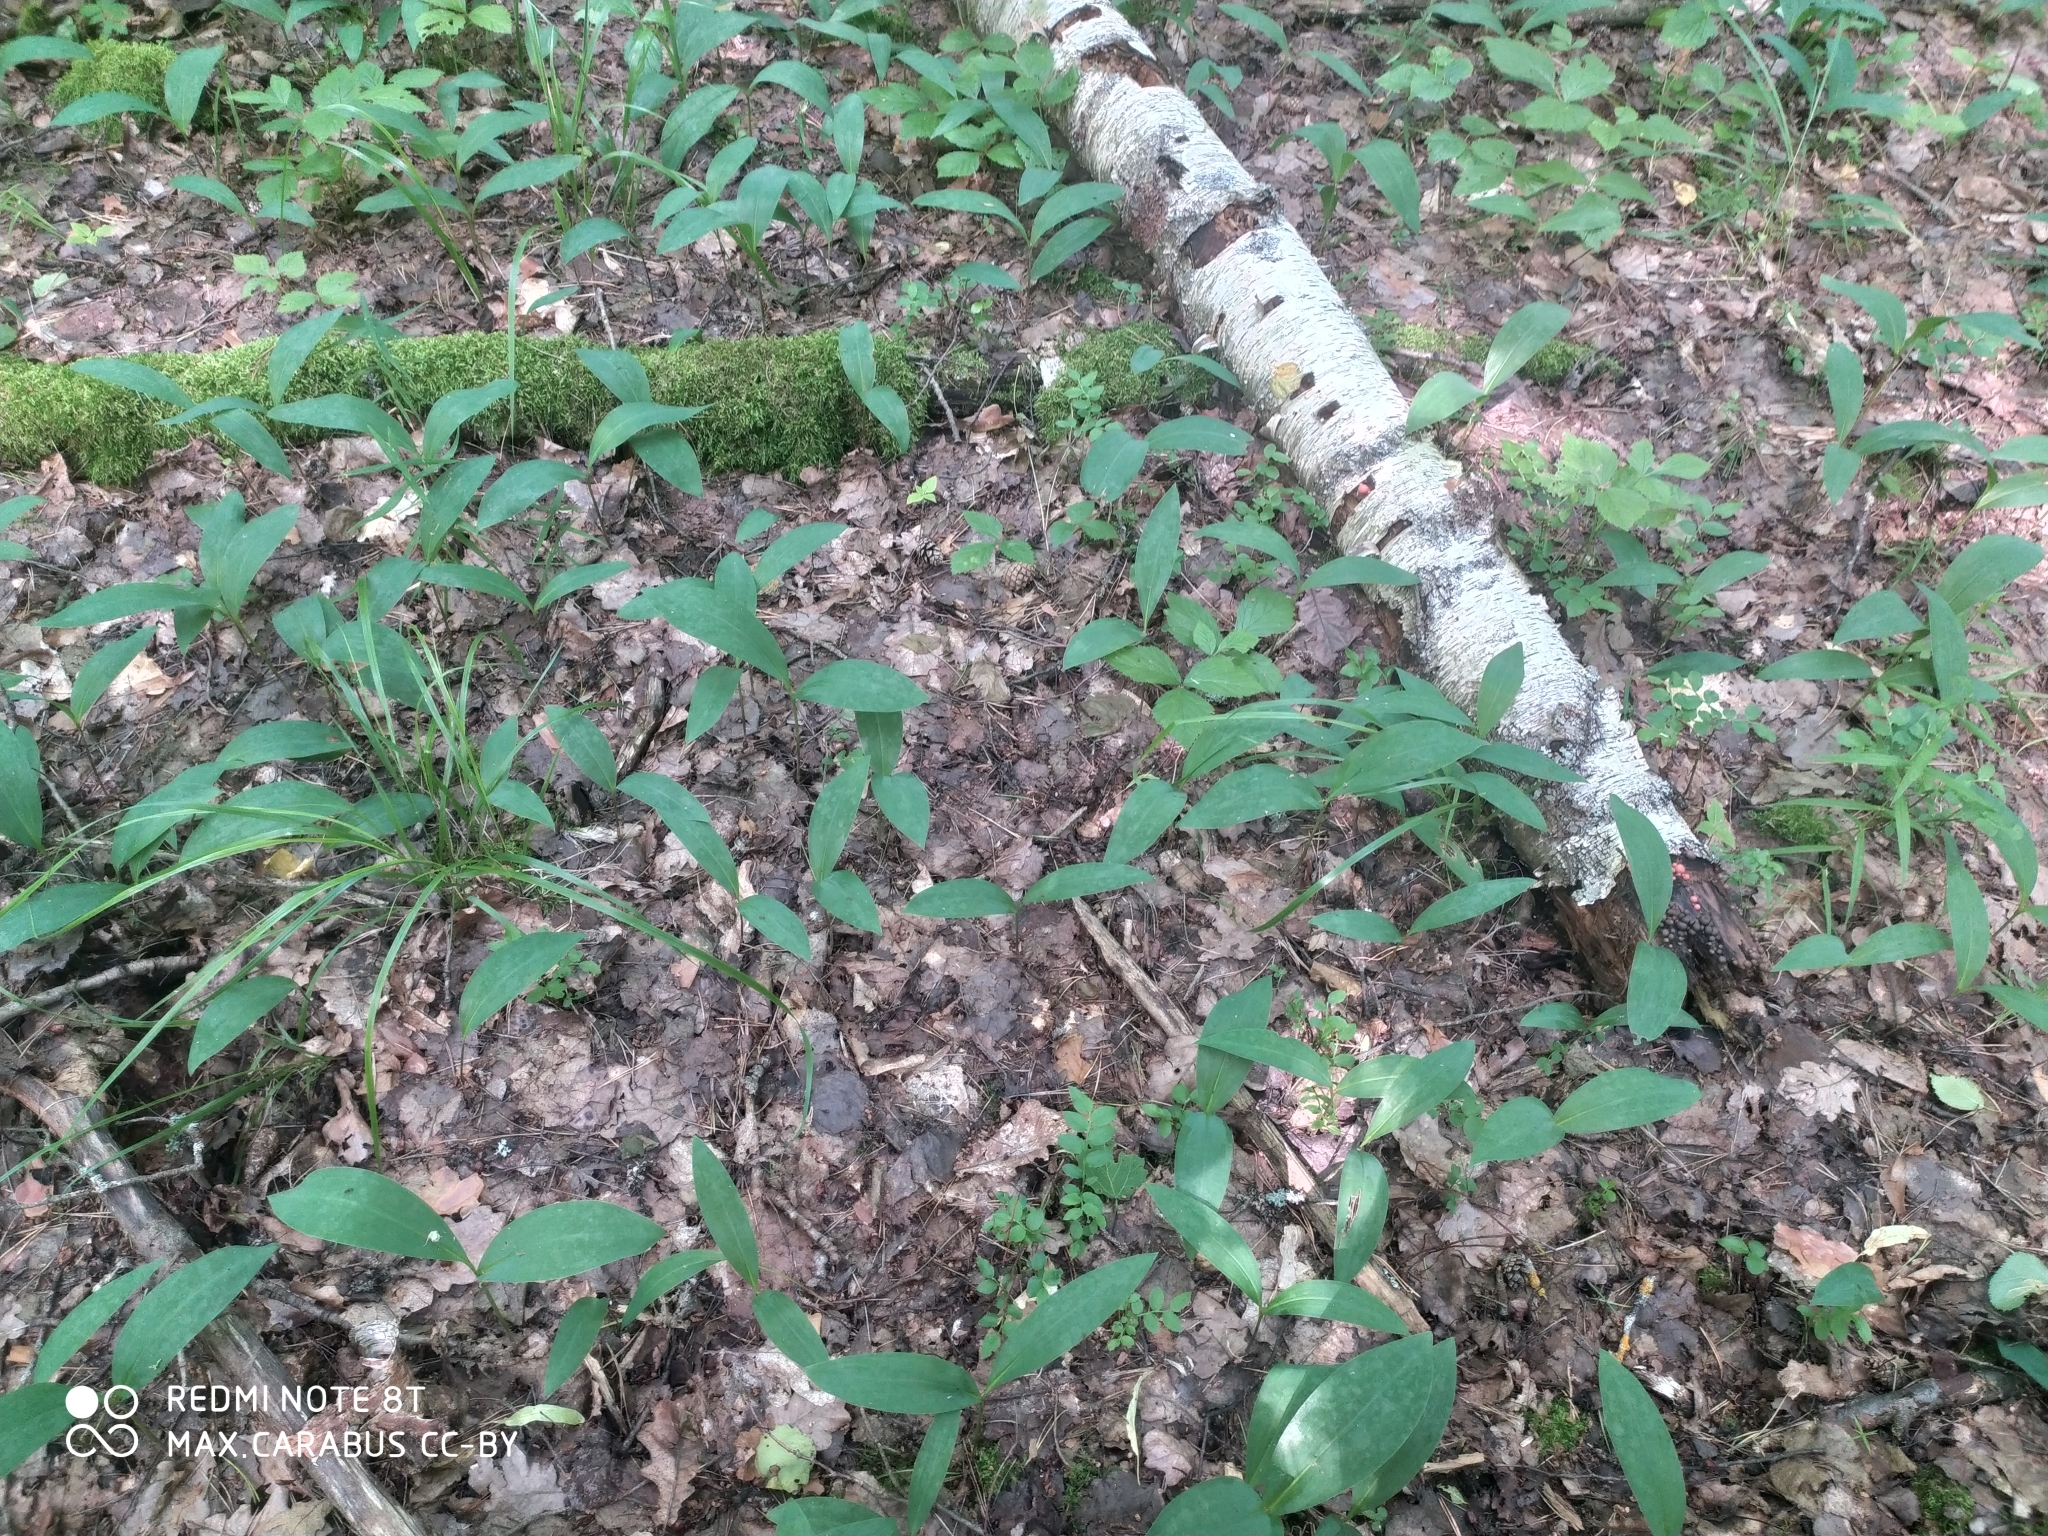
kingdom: Plantae
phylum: Tracheophyta
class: Liliopsida
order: Asparagales
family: Asparagaceae
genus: Convallaria
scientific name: Convallaria majalis
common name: Lily-of-the-valley
